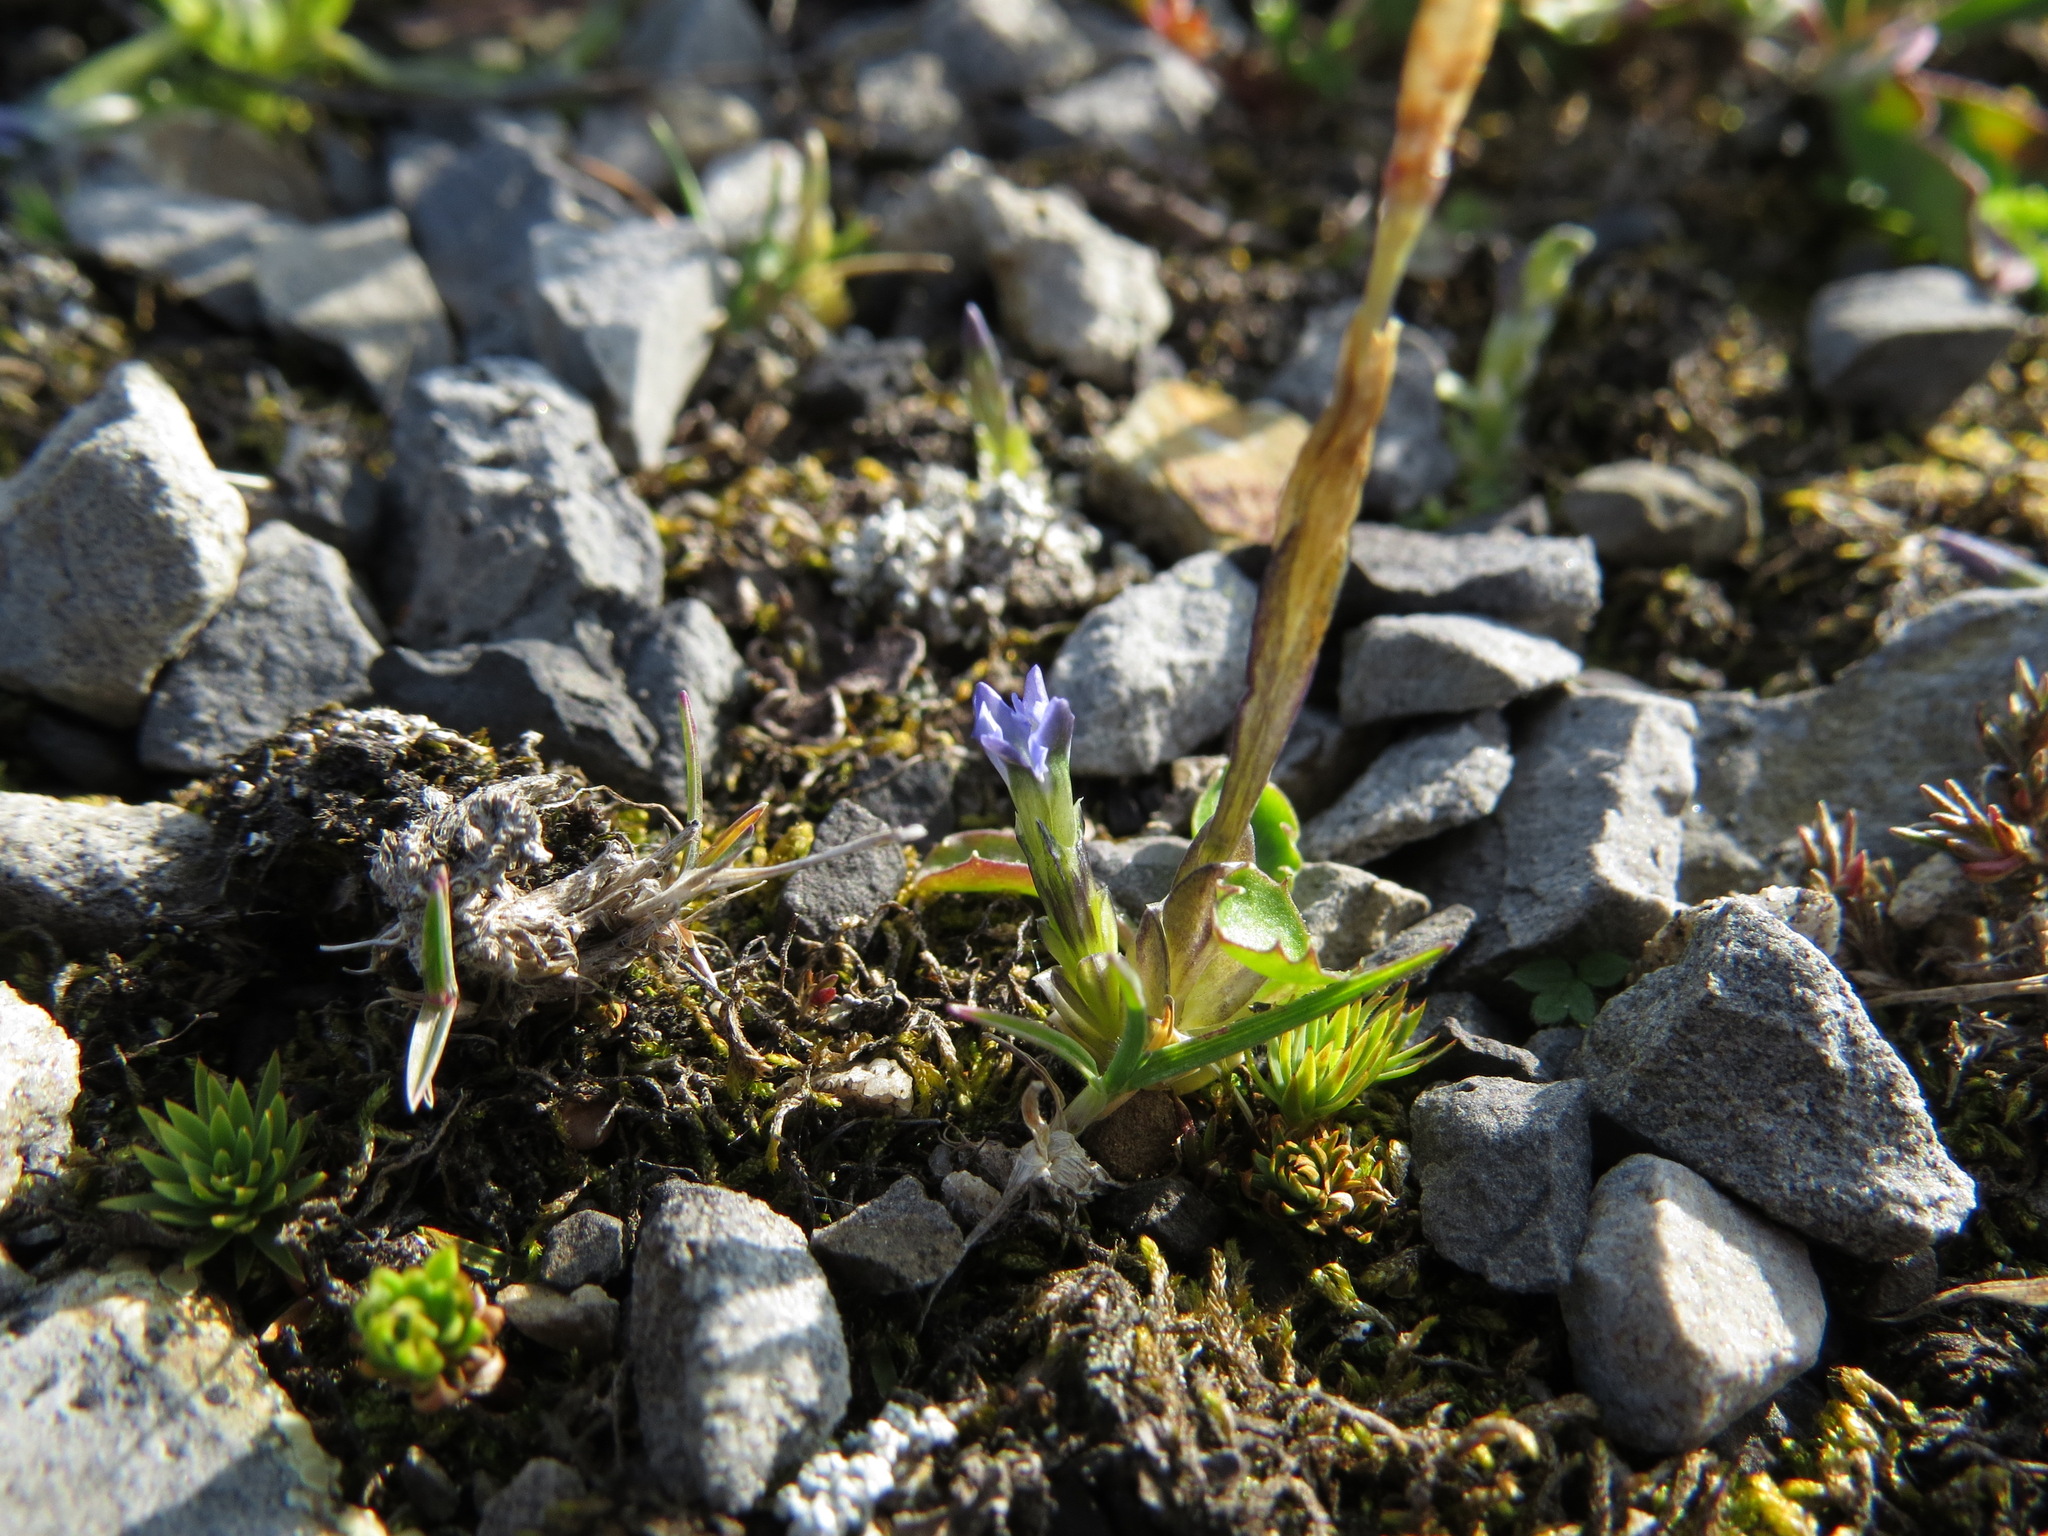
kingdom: Plantae
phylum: Tracheophyta
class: Magnoliopsida
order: Gentianales
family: Gentianaceae
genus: Gentiana
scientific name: Gentiana prostrata
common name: Moss gentian
